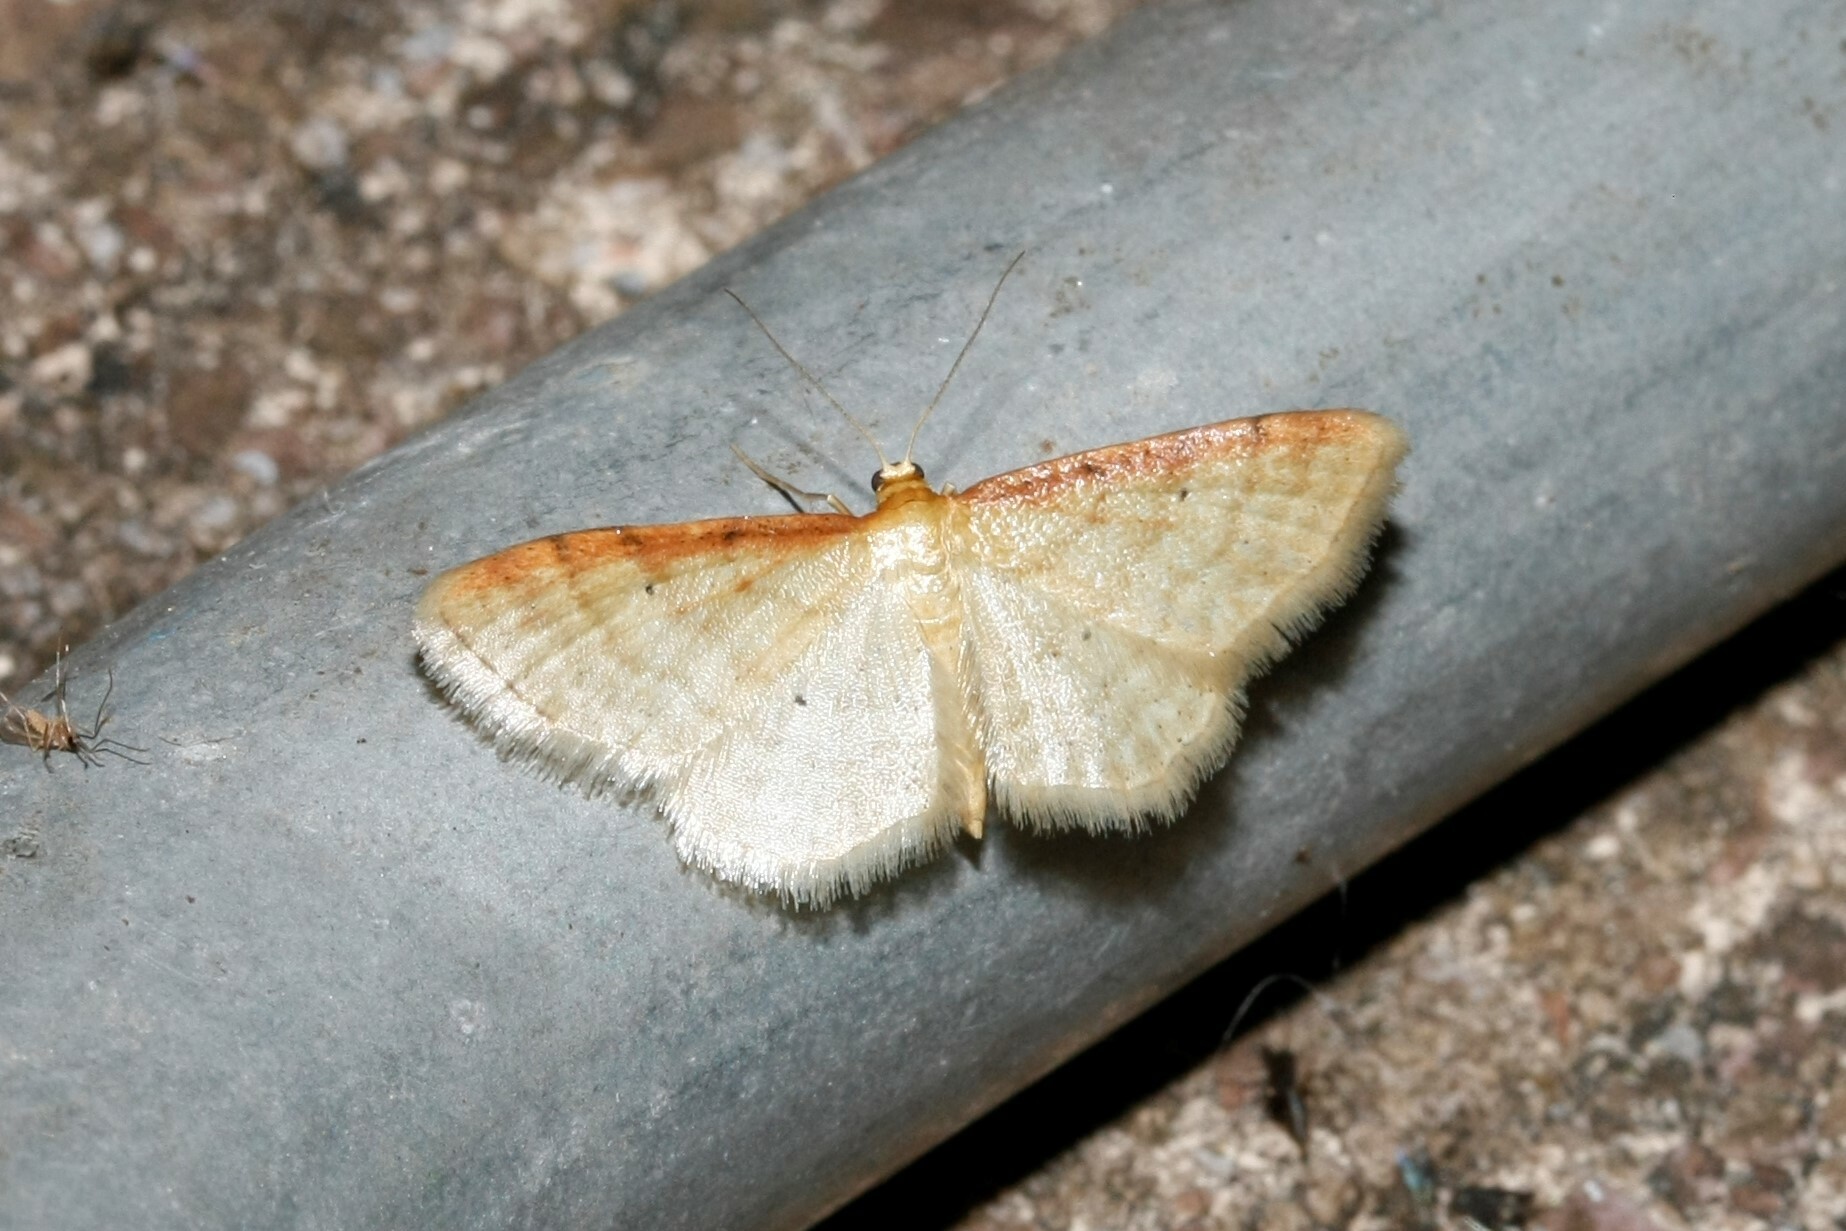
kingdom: Animalia
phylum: Arthropoda
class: Insecta
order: Lepidoptera
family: Geometridae
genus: Idaea
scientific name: Idaea humiliata
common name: Isle of wight wave
